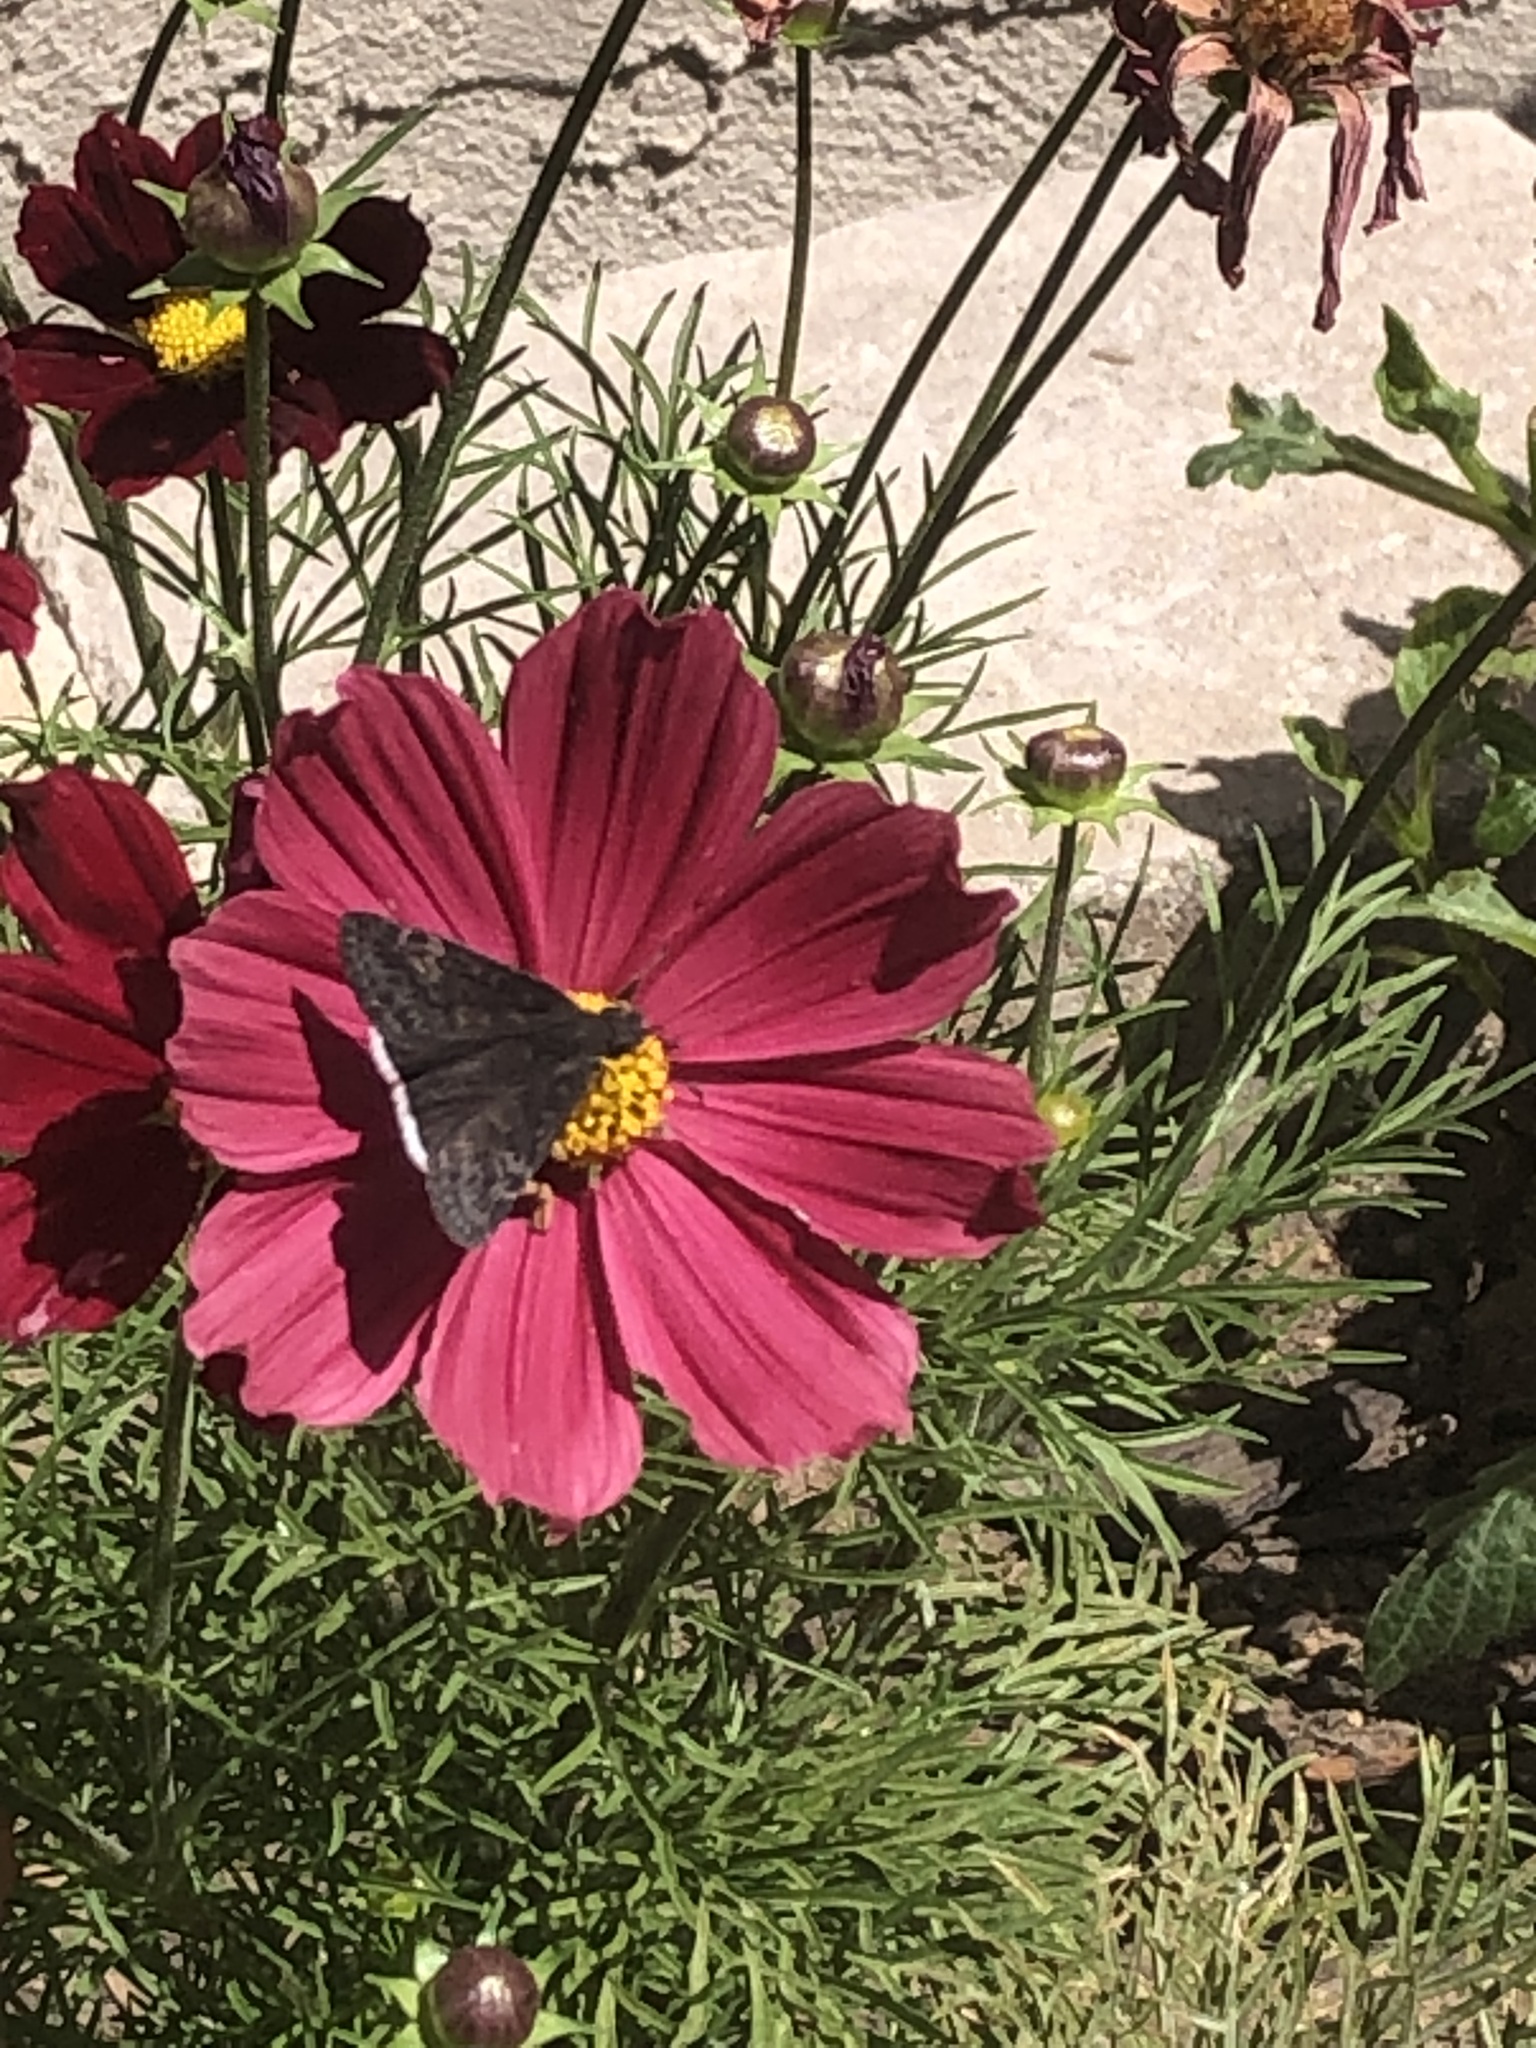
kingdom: Animalia
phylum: Arthropoda
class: Insecta
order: Lepidoptera
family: Hesperiidae
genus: Erynnis
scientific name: Erynnis funeralis
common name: Funereal duskywing
